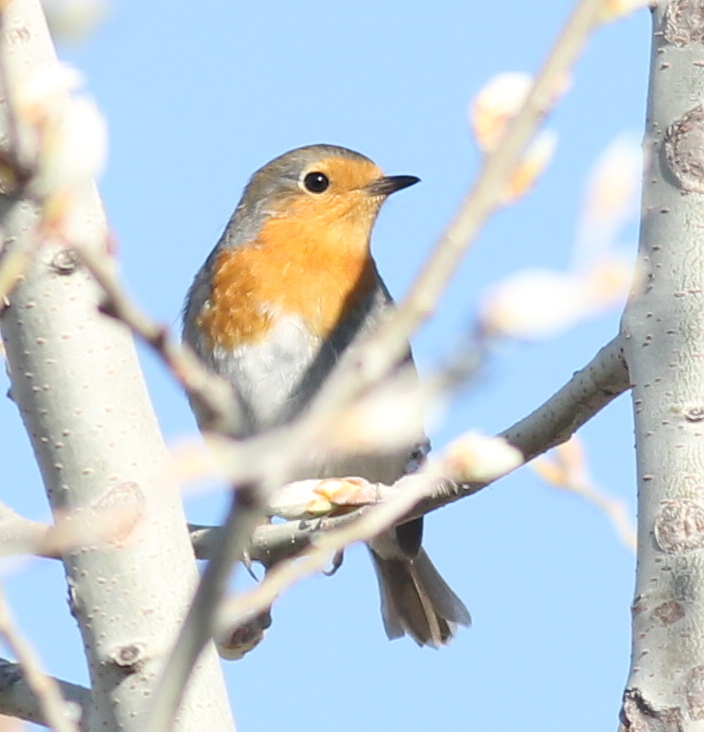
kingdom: Animalia
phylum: Chordata
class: Aves
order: Passeriformes
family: Muscicapidae
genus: Erithacus
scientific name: Erithacus rubecula
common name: European robin
